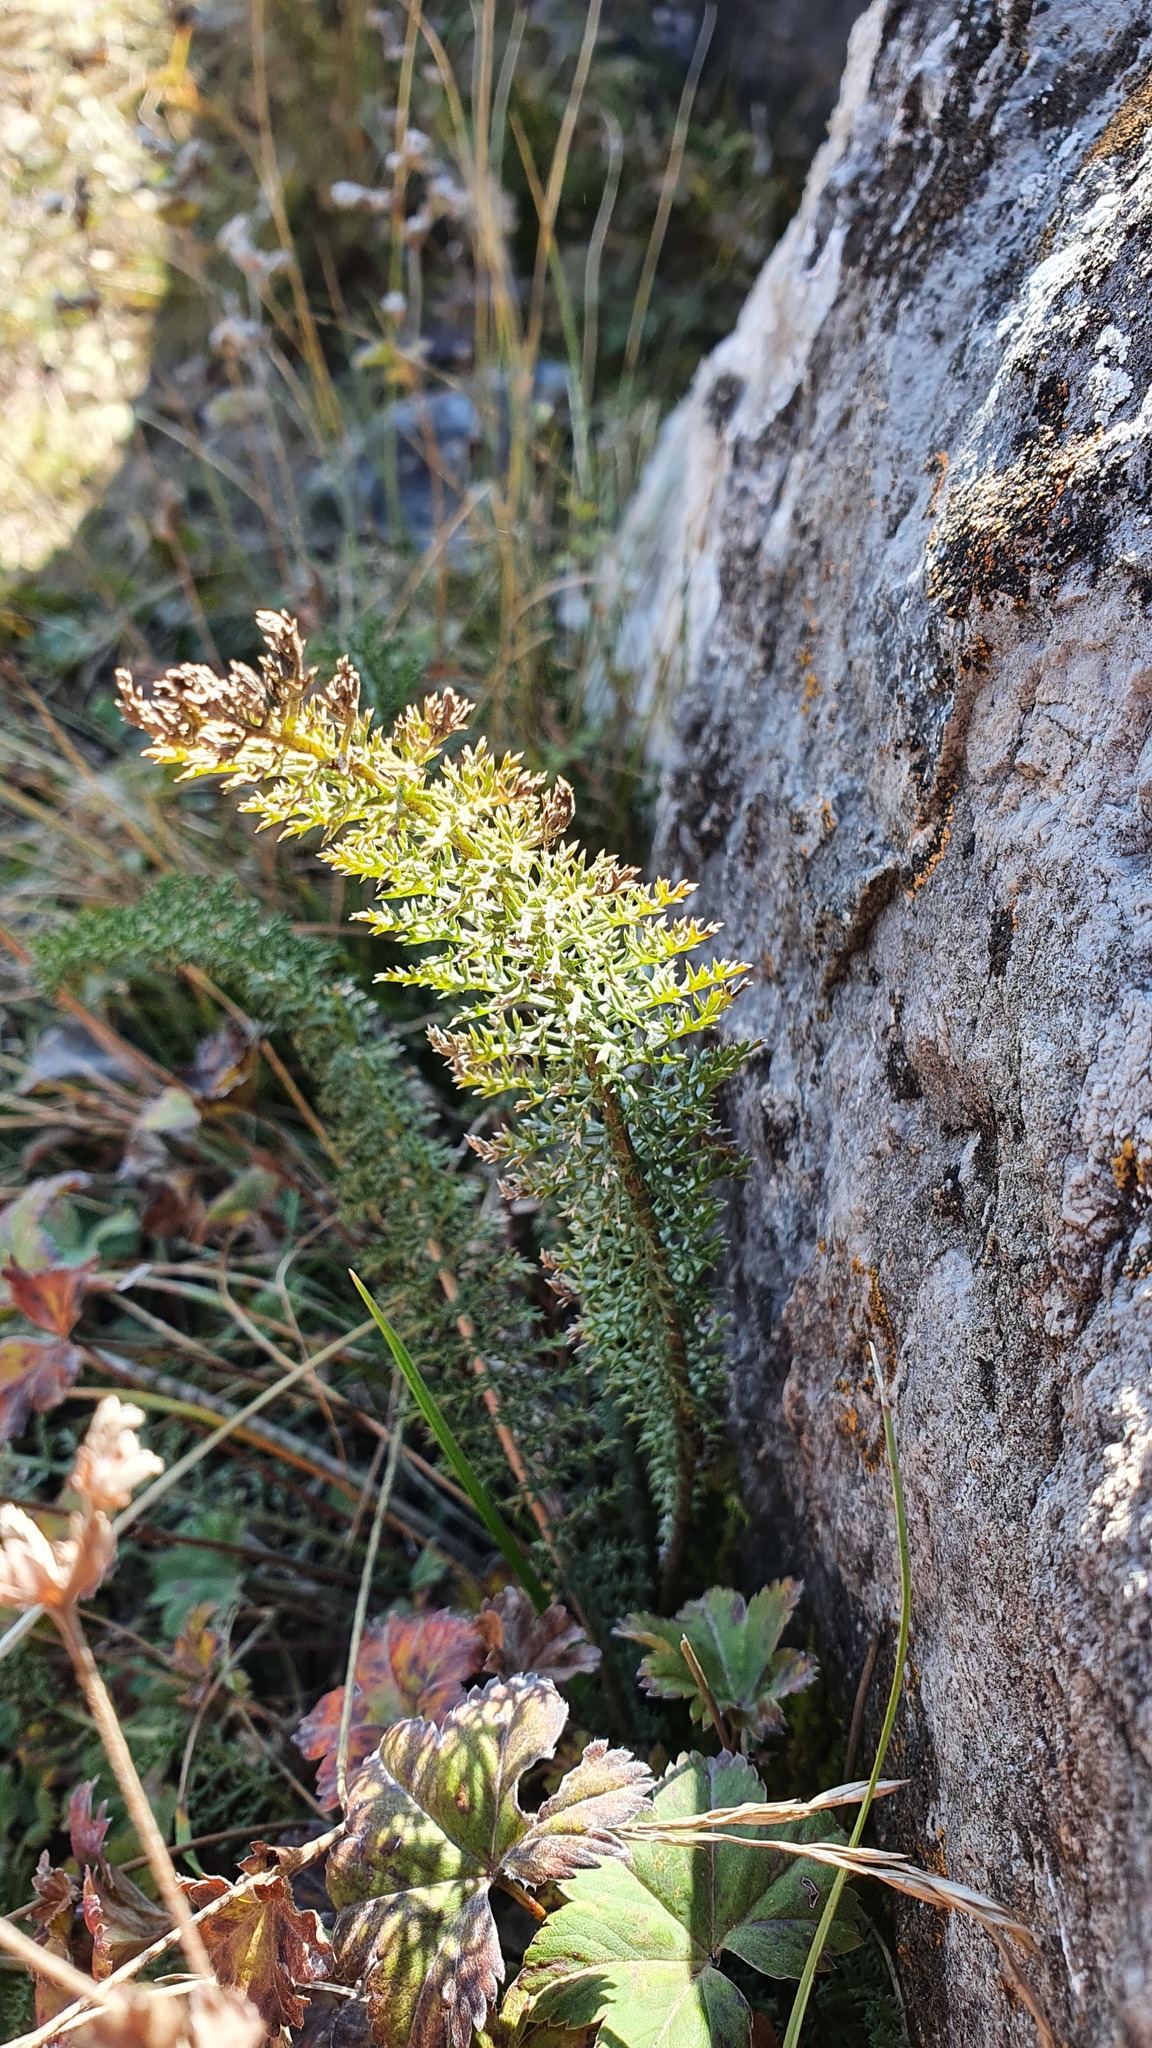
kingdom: Plantae
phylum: Tracheophyta
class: Magnoliopsida
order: Rosales
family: Rosaceae
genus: Filipendula
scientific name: Filipendula vulgaris
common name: Dropwort
